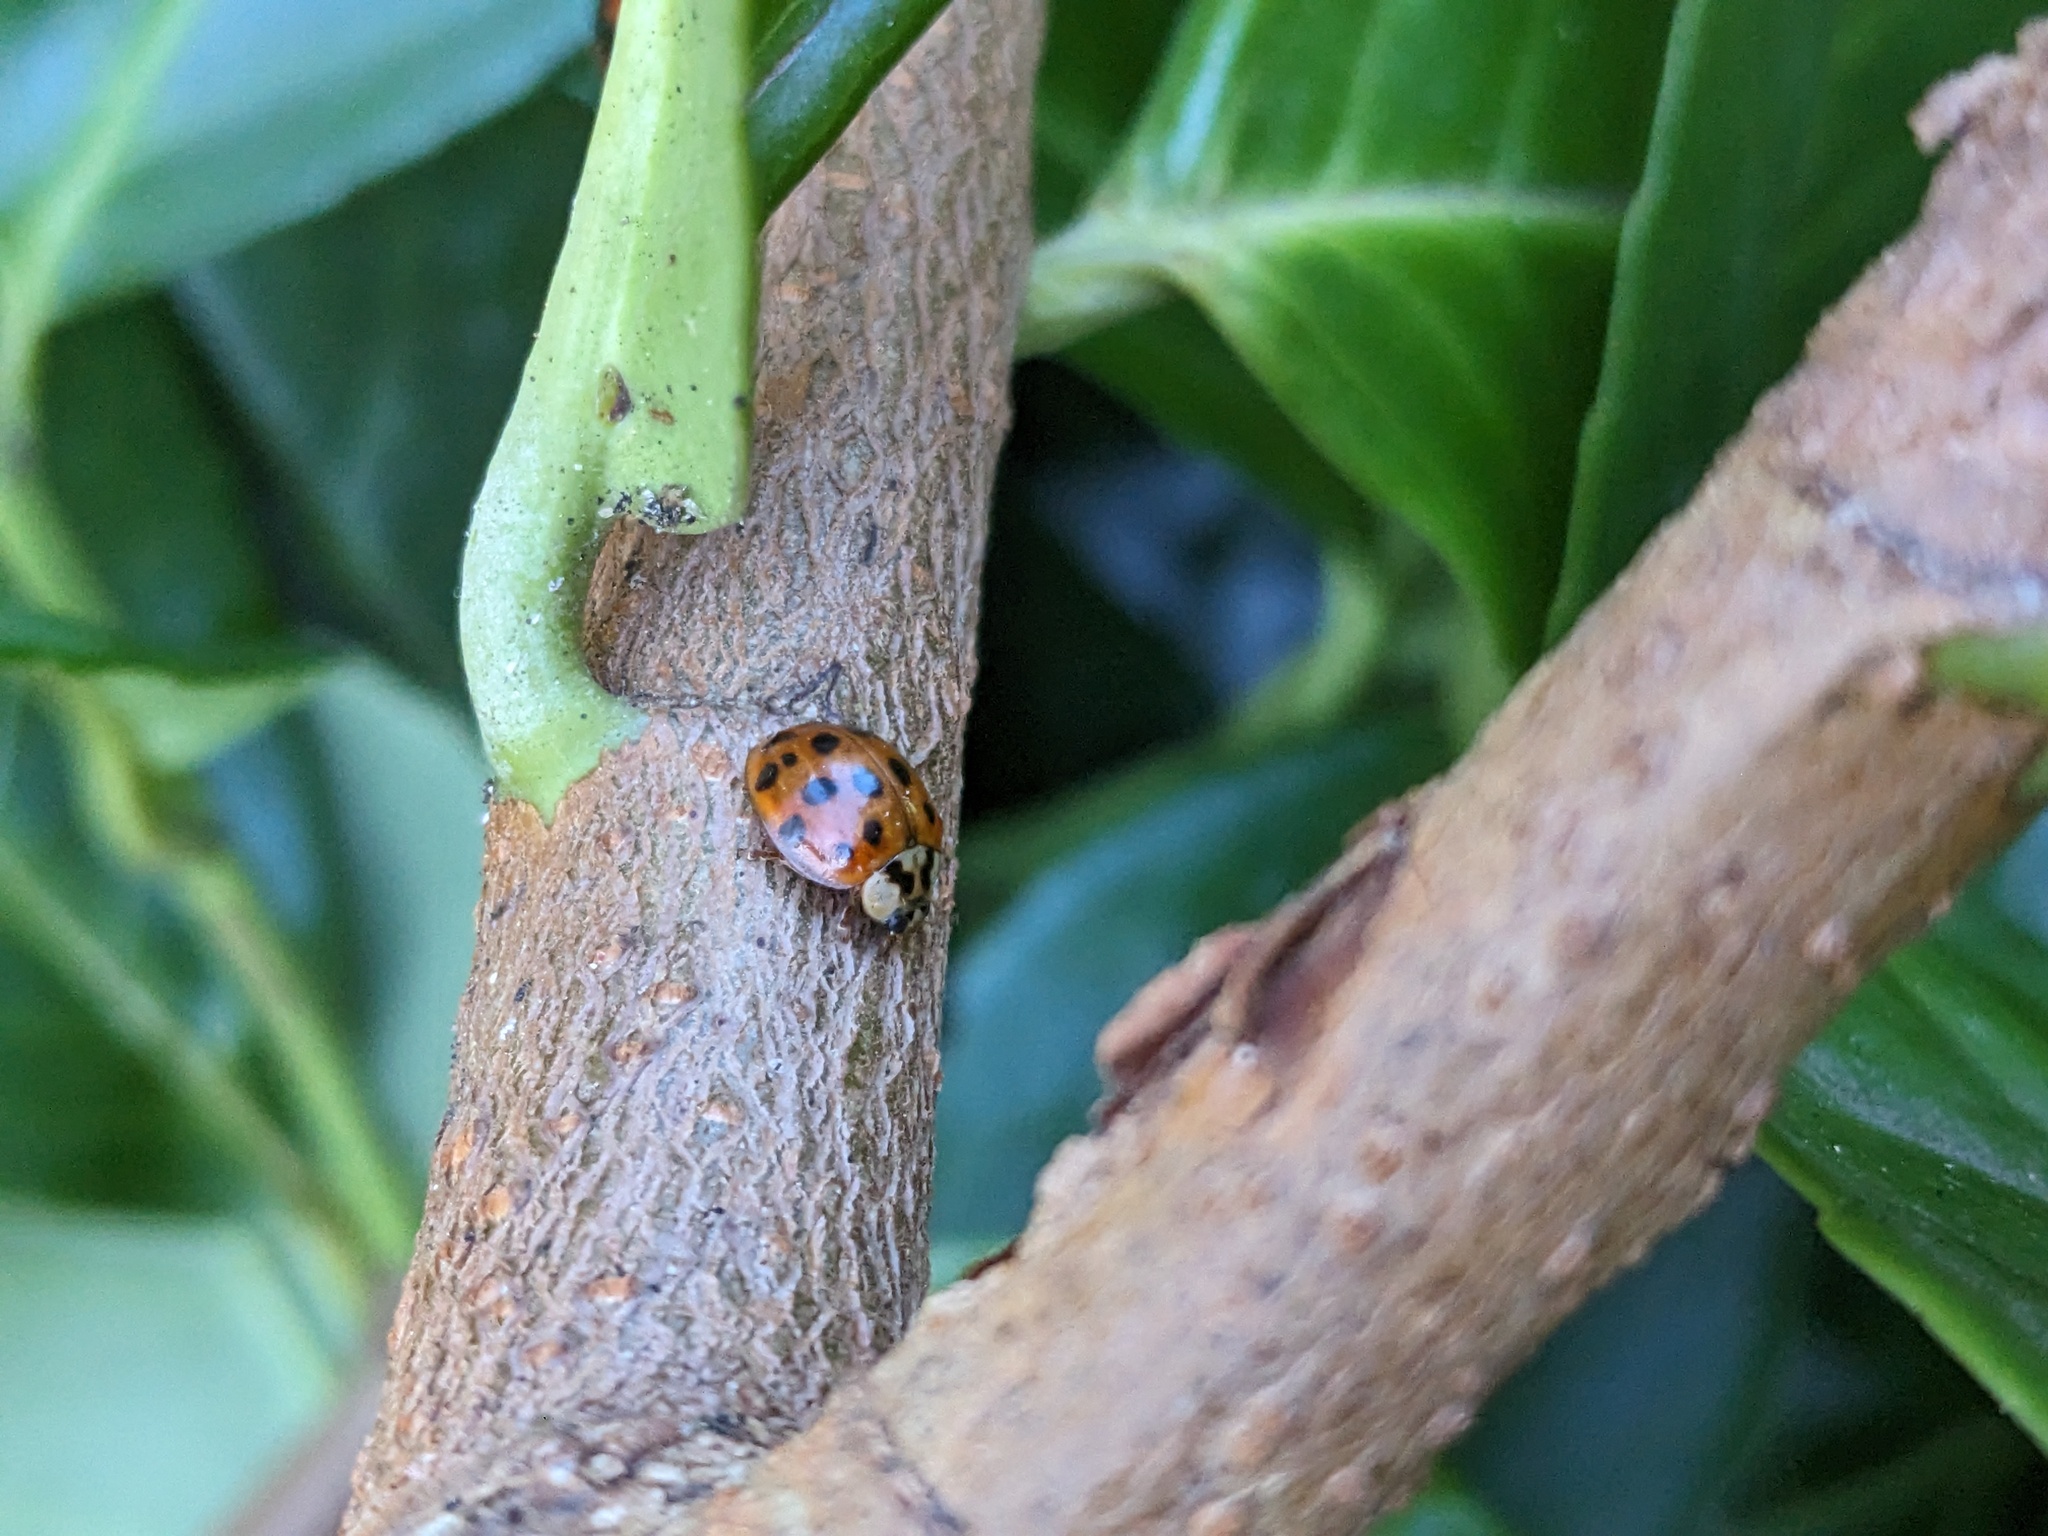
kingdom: Animalia
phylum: Arthropoda
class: Insecta
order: Coleoptera
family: Coccinellidae
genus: Harmonia
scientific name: Harmonia axyridis
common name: Harlequin ladybird
